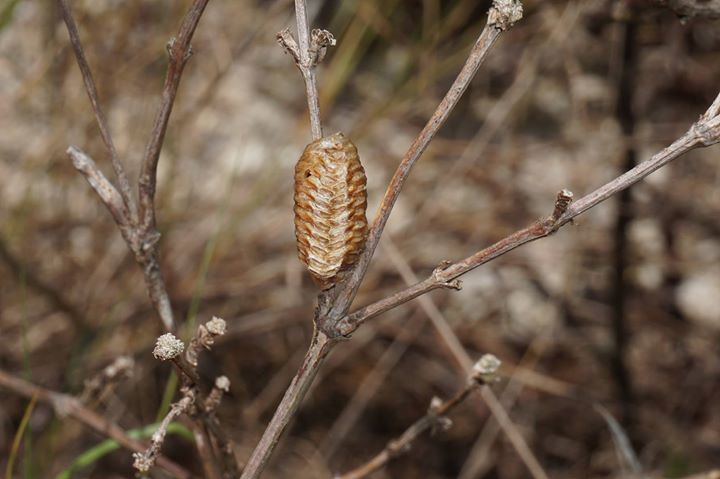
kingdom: Animalia
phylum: Arthropoda
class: Insecta
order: Mantodea
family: Mantidae
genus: Stagmomantis
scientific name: Stagmomantis carolina
